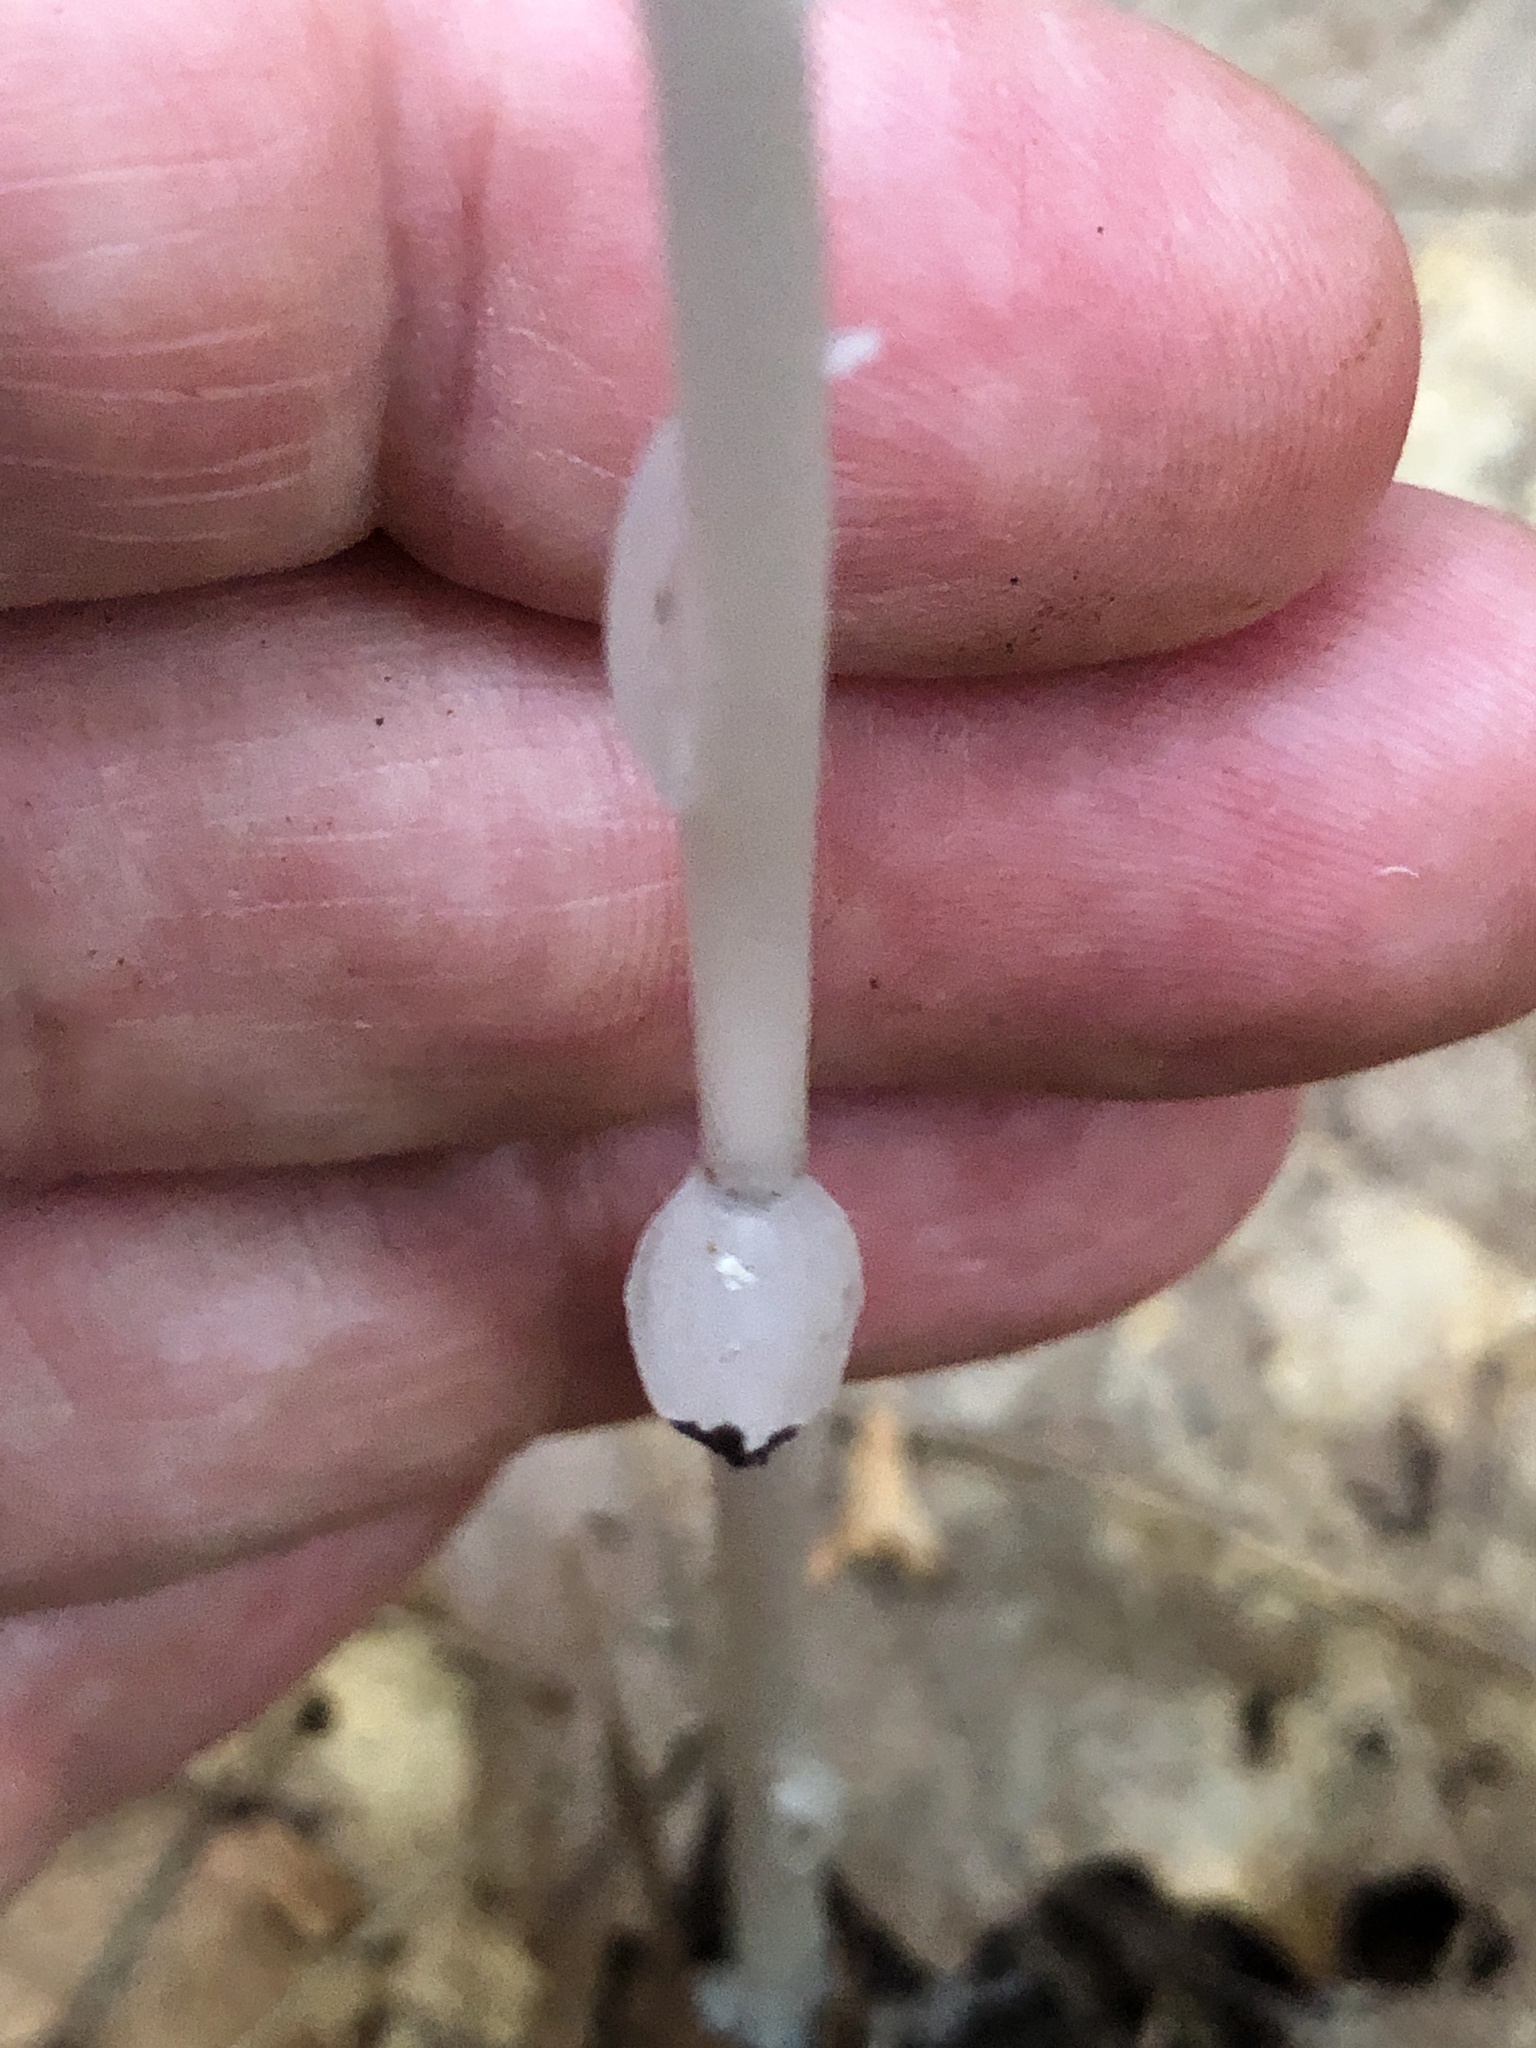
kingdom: Plantae
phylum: Tracheophyta
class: Magnoliopsida
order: Ericales
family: Ericaceae
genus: Monotropa
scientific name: Monotropa uniflora
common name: Convulsion root
